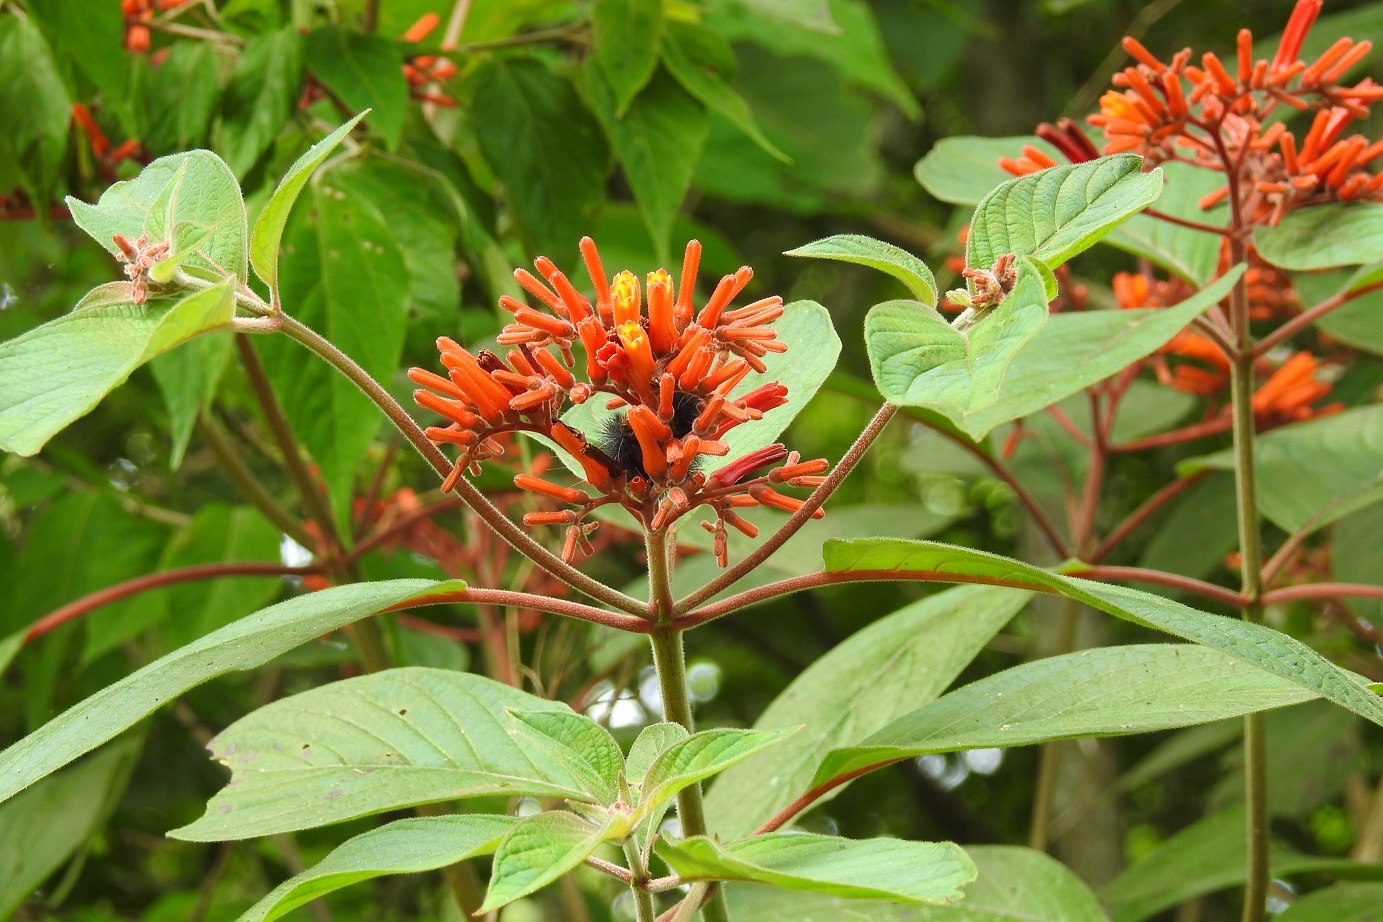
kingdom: Plantae
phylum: Tracheophyta
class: Magnoliopsida
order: Gentianales
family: Rubiaceae
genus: Hamelia
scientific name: Hamelia patens
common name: Redhead
